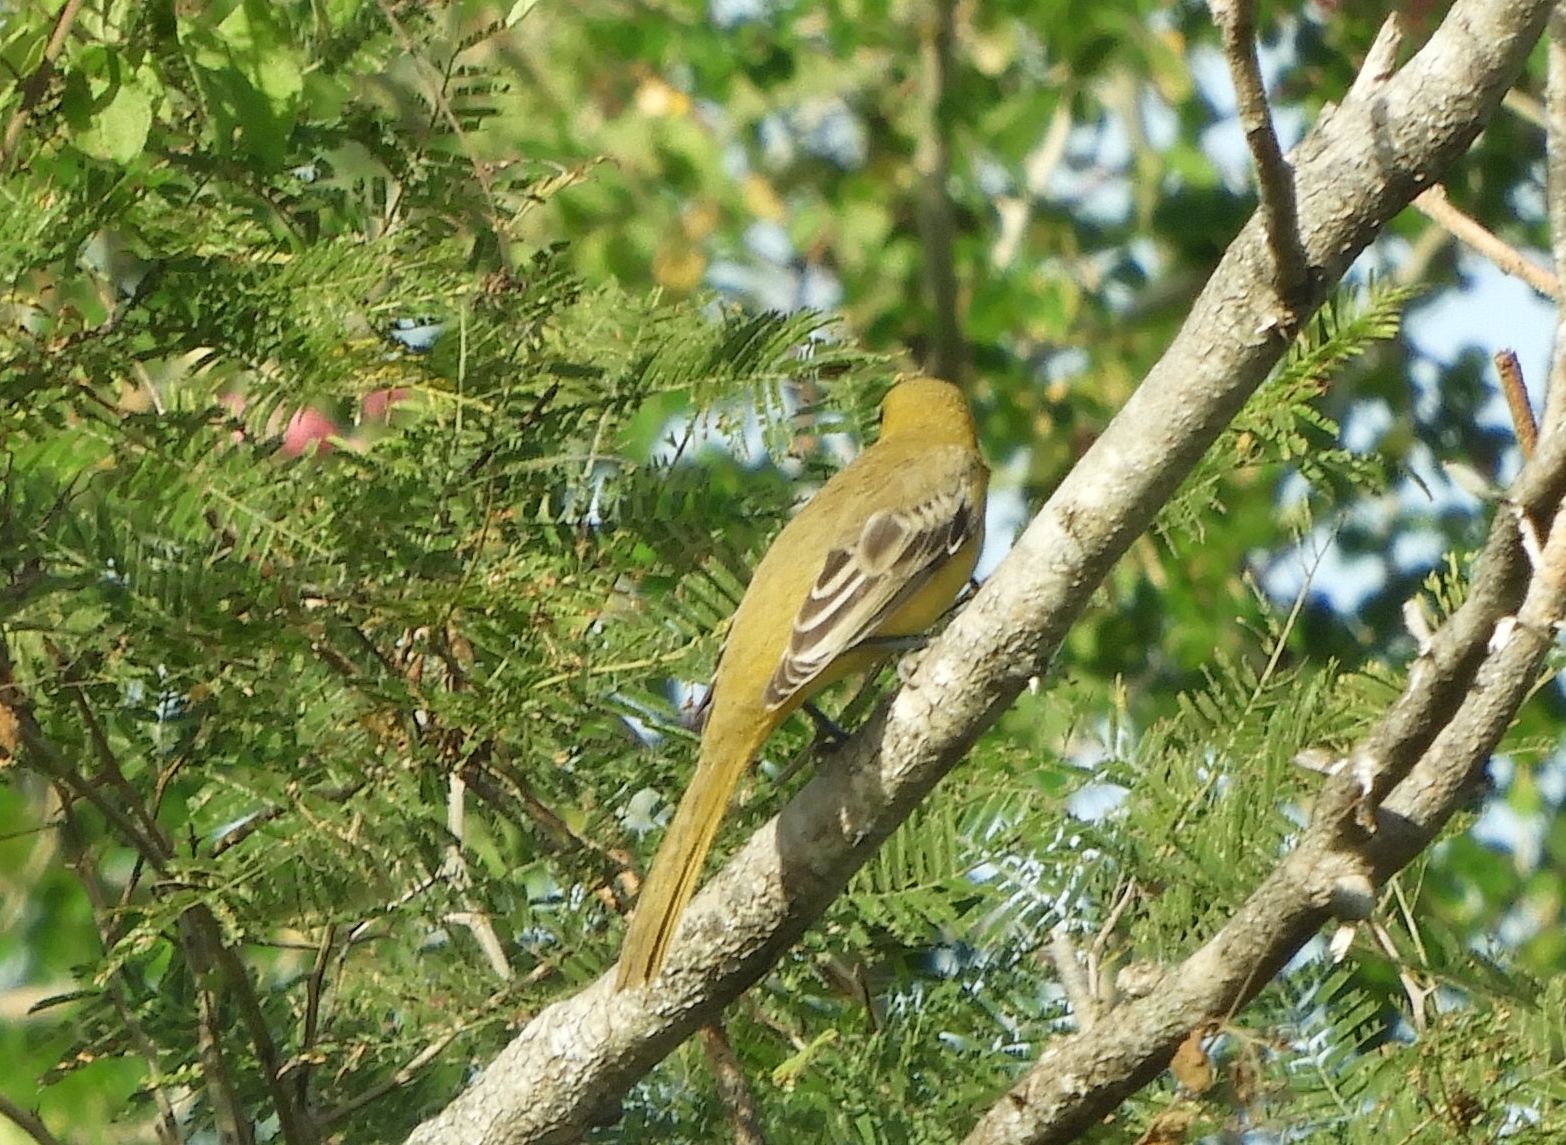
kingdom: Animalia
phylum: Chordata
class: Aves
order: Passeriformes
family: Icteridae
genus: Icterus
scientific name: Icterus
